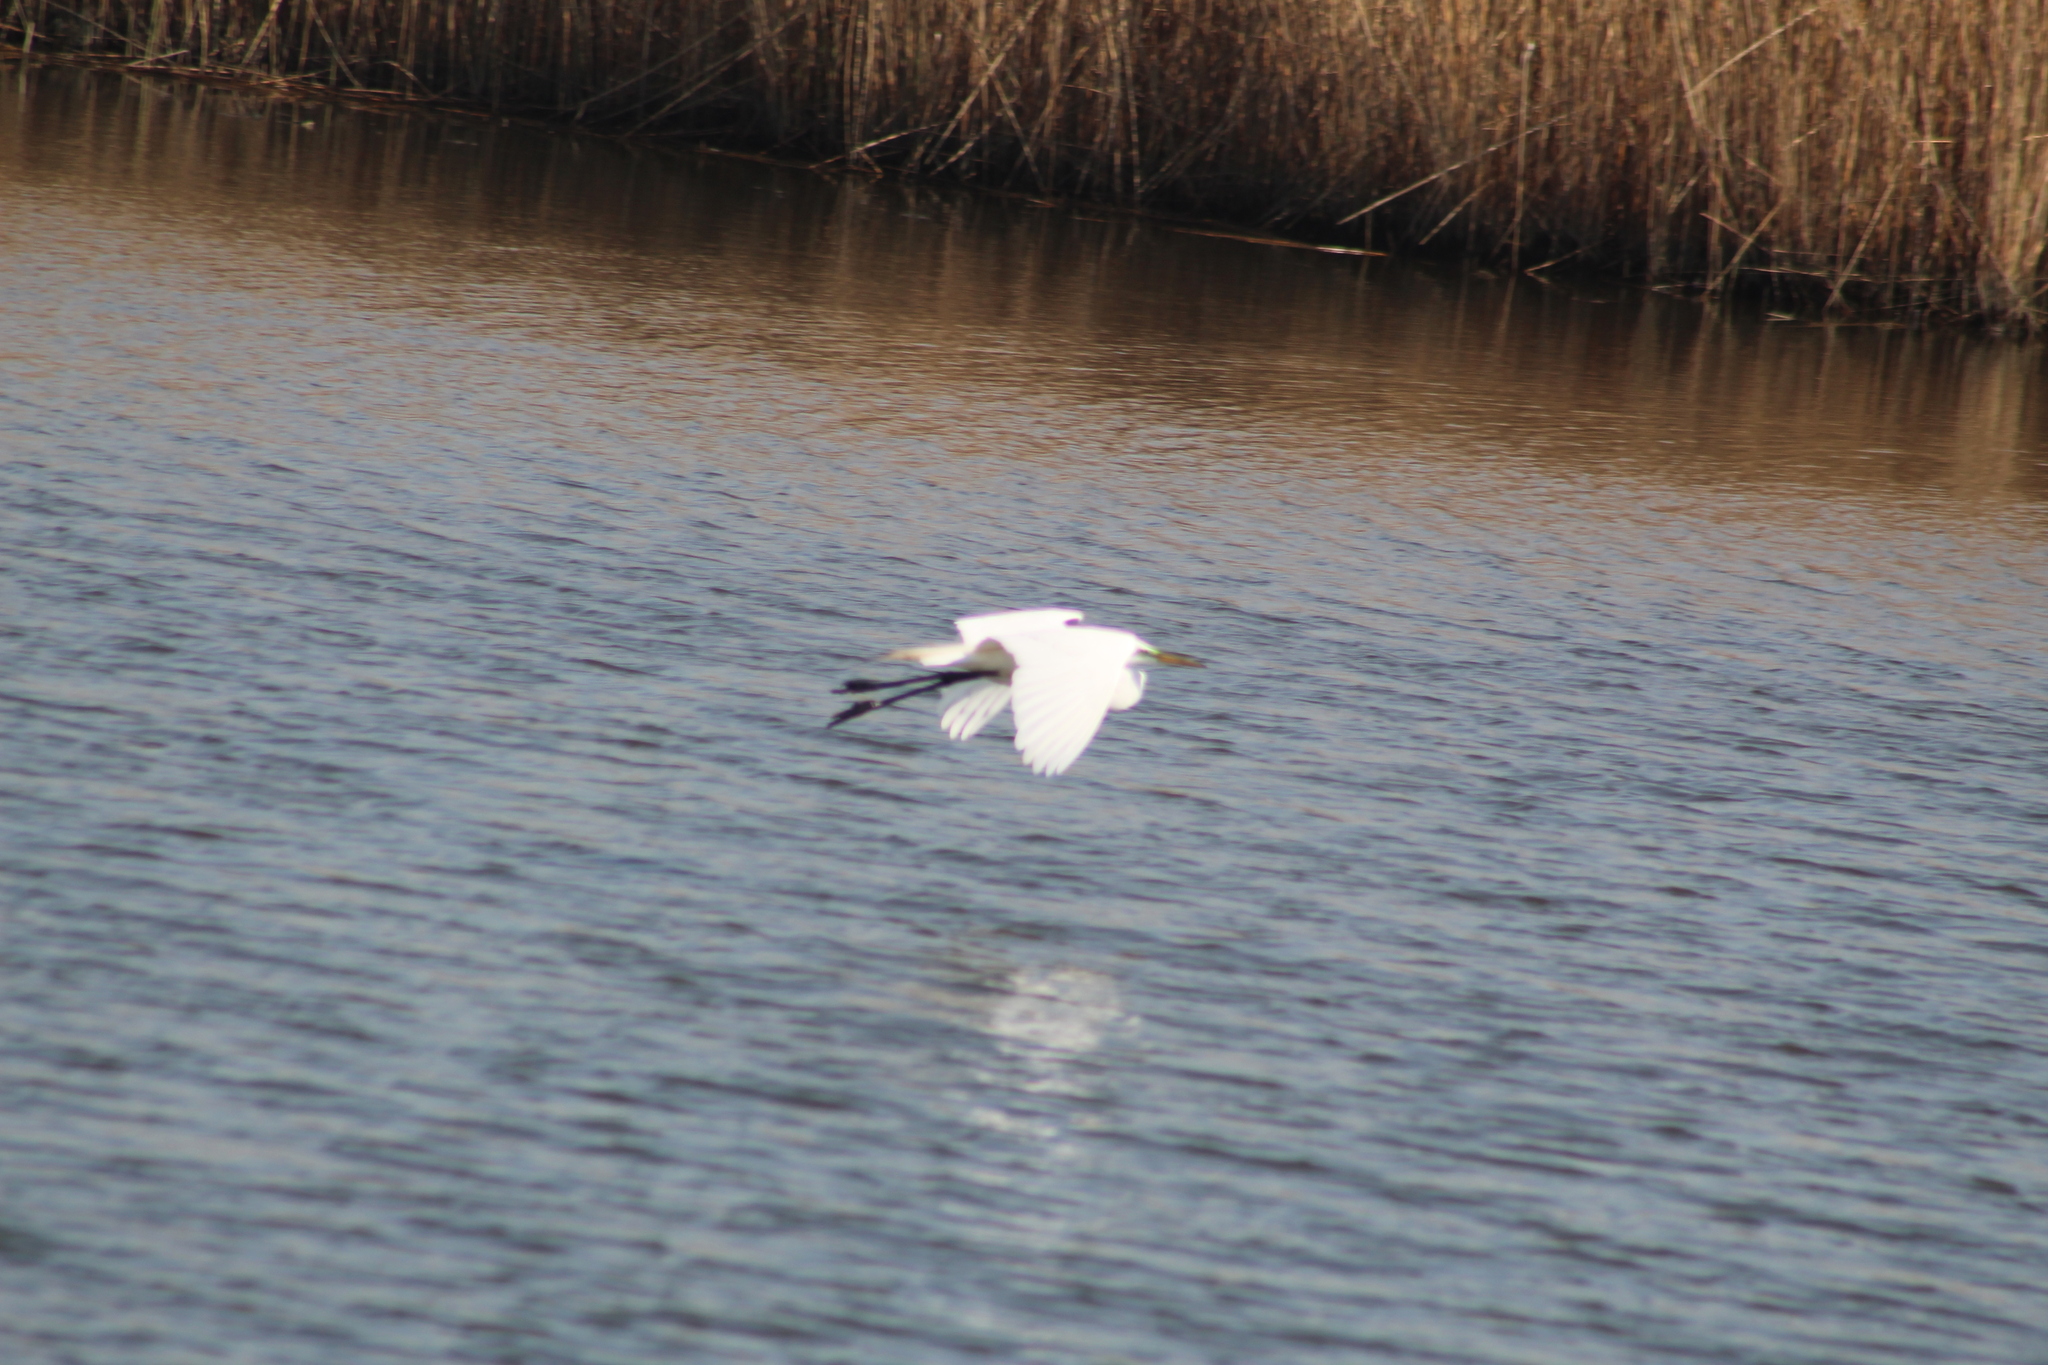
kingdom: Animalia
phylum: Chordata
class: Aves
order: Pelecaniformes
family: Ardeidae
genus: Ardea
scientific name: Ardea alba
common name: Great egret
